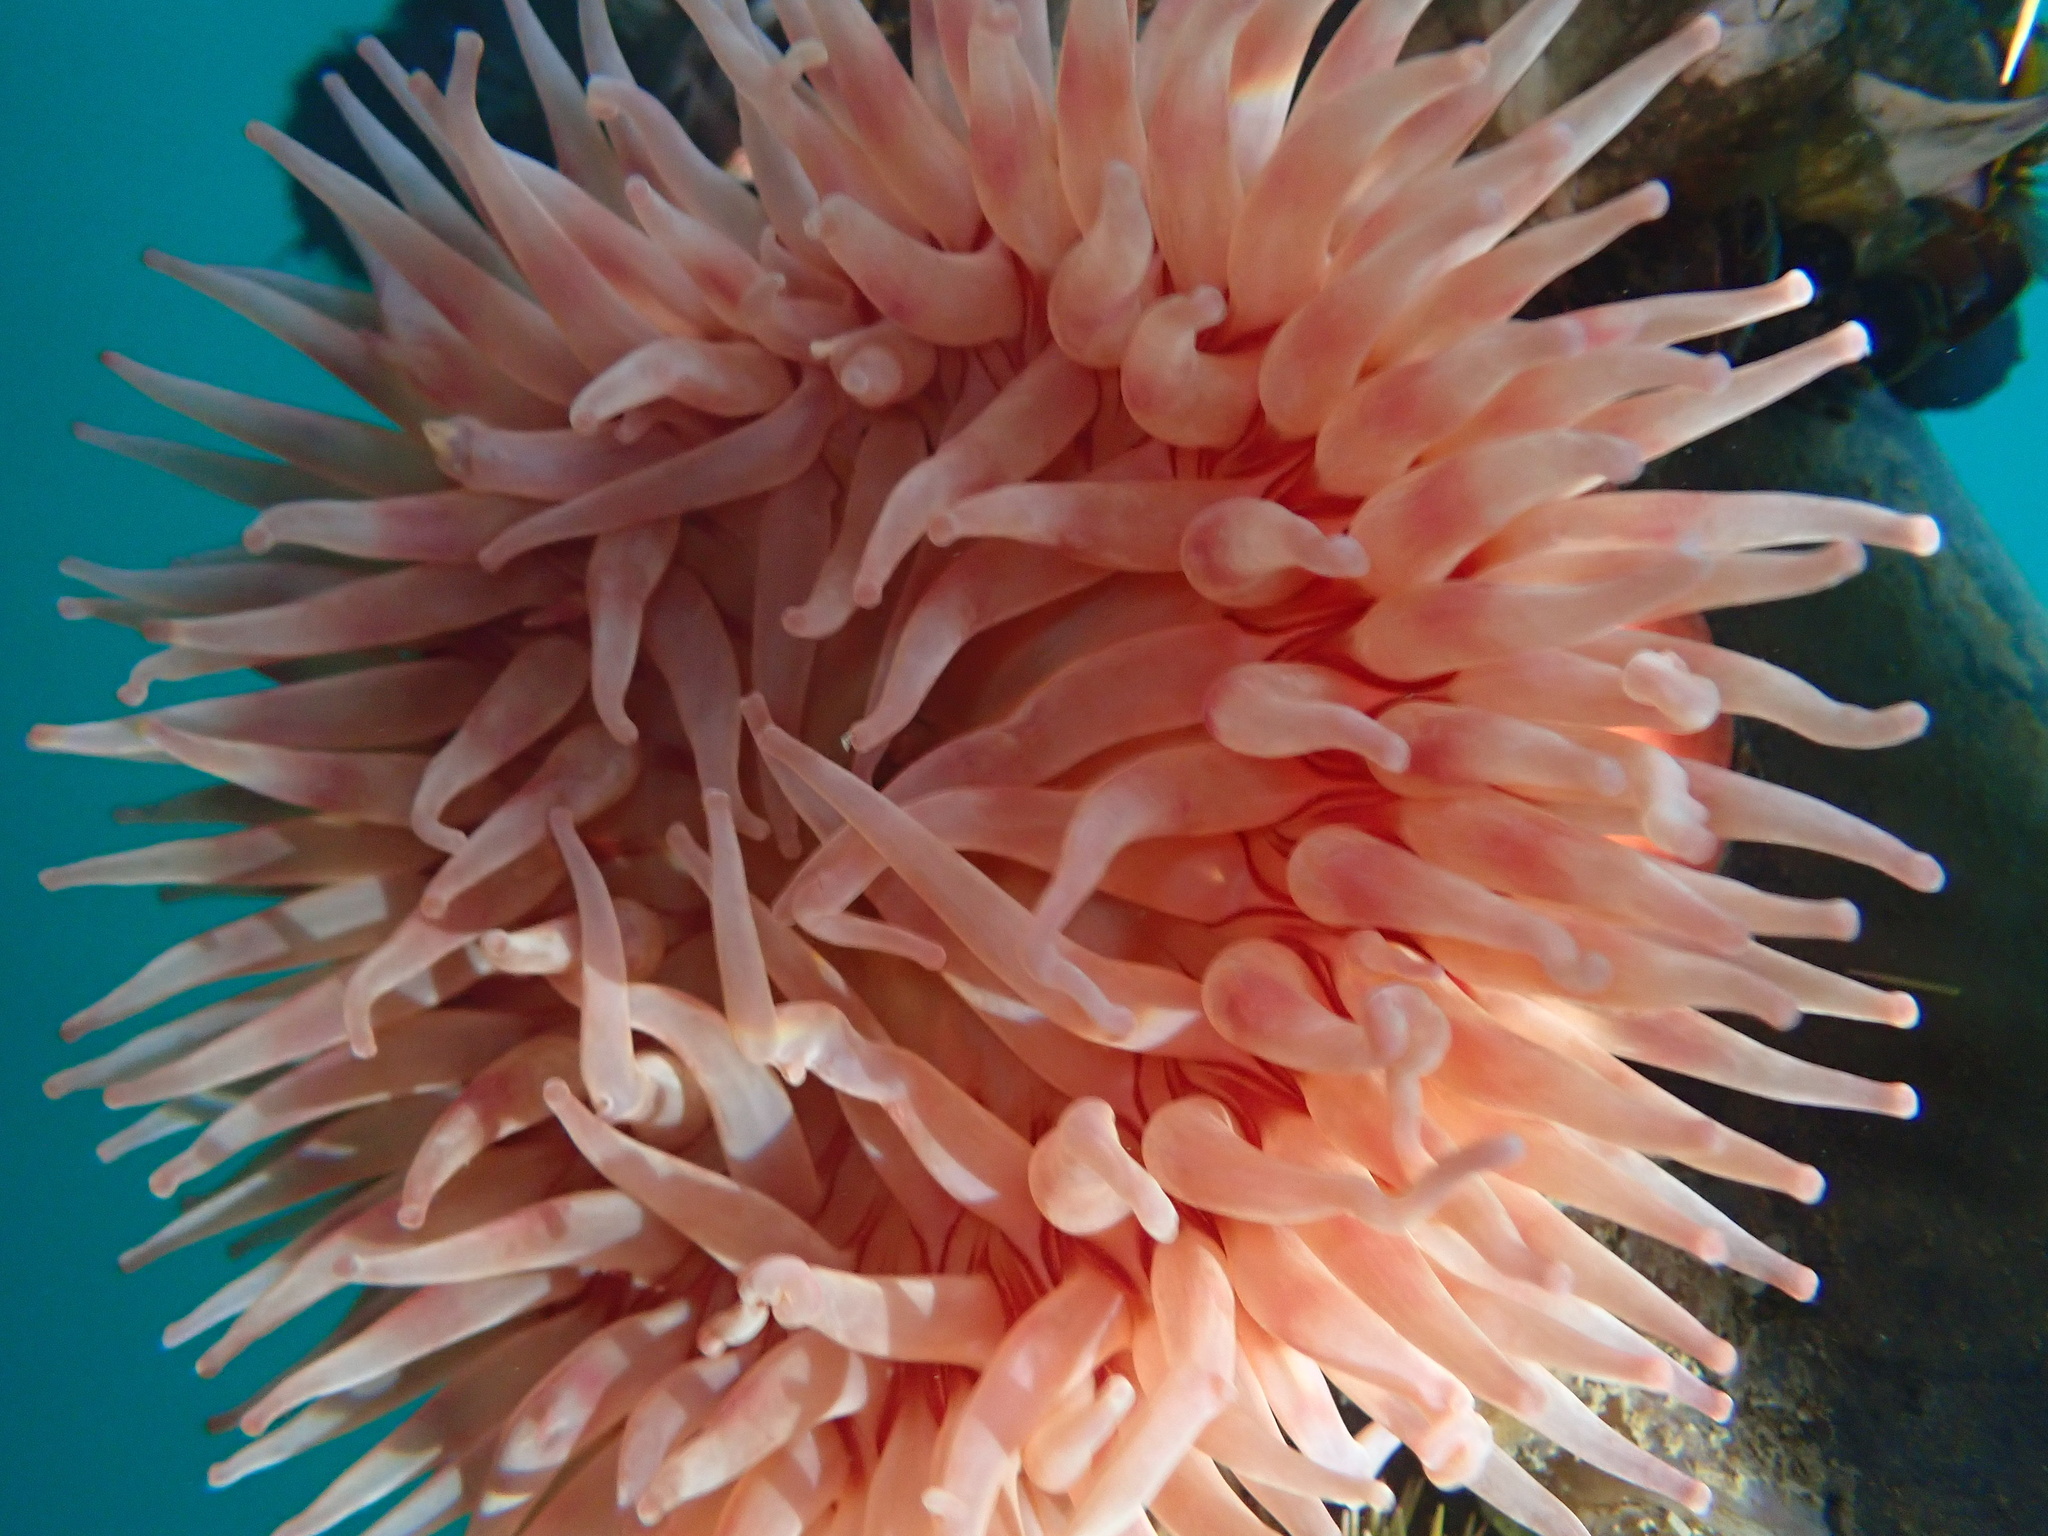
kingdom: Animalia
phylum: Cnidaria
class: Anthozoa
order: Actiniaria
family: Actiniidae
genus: Urticina
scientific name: Urticina grebelnyi
